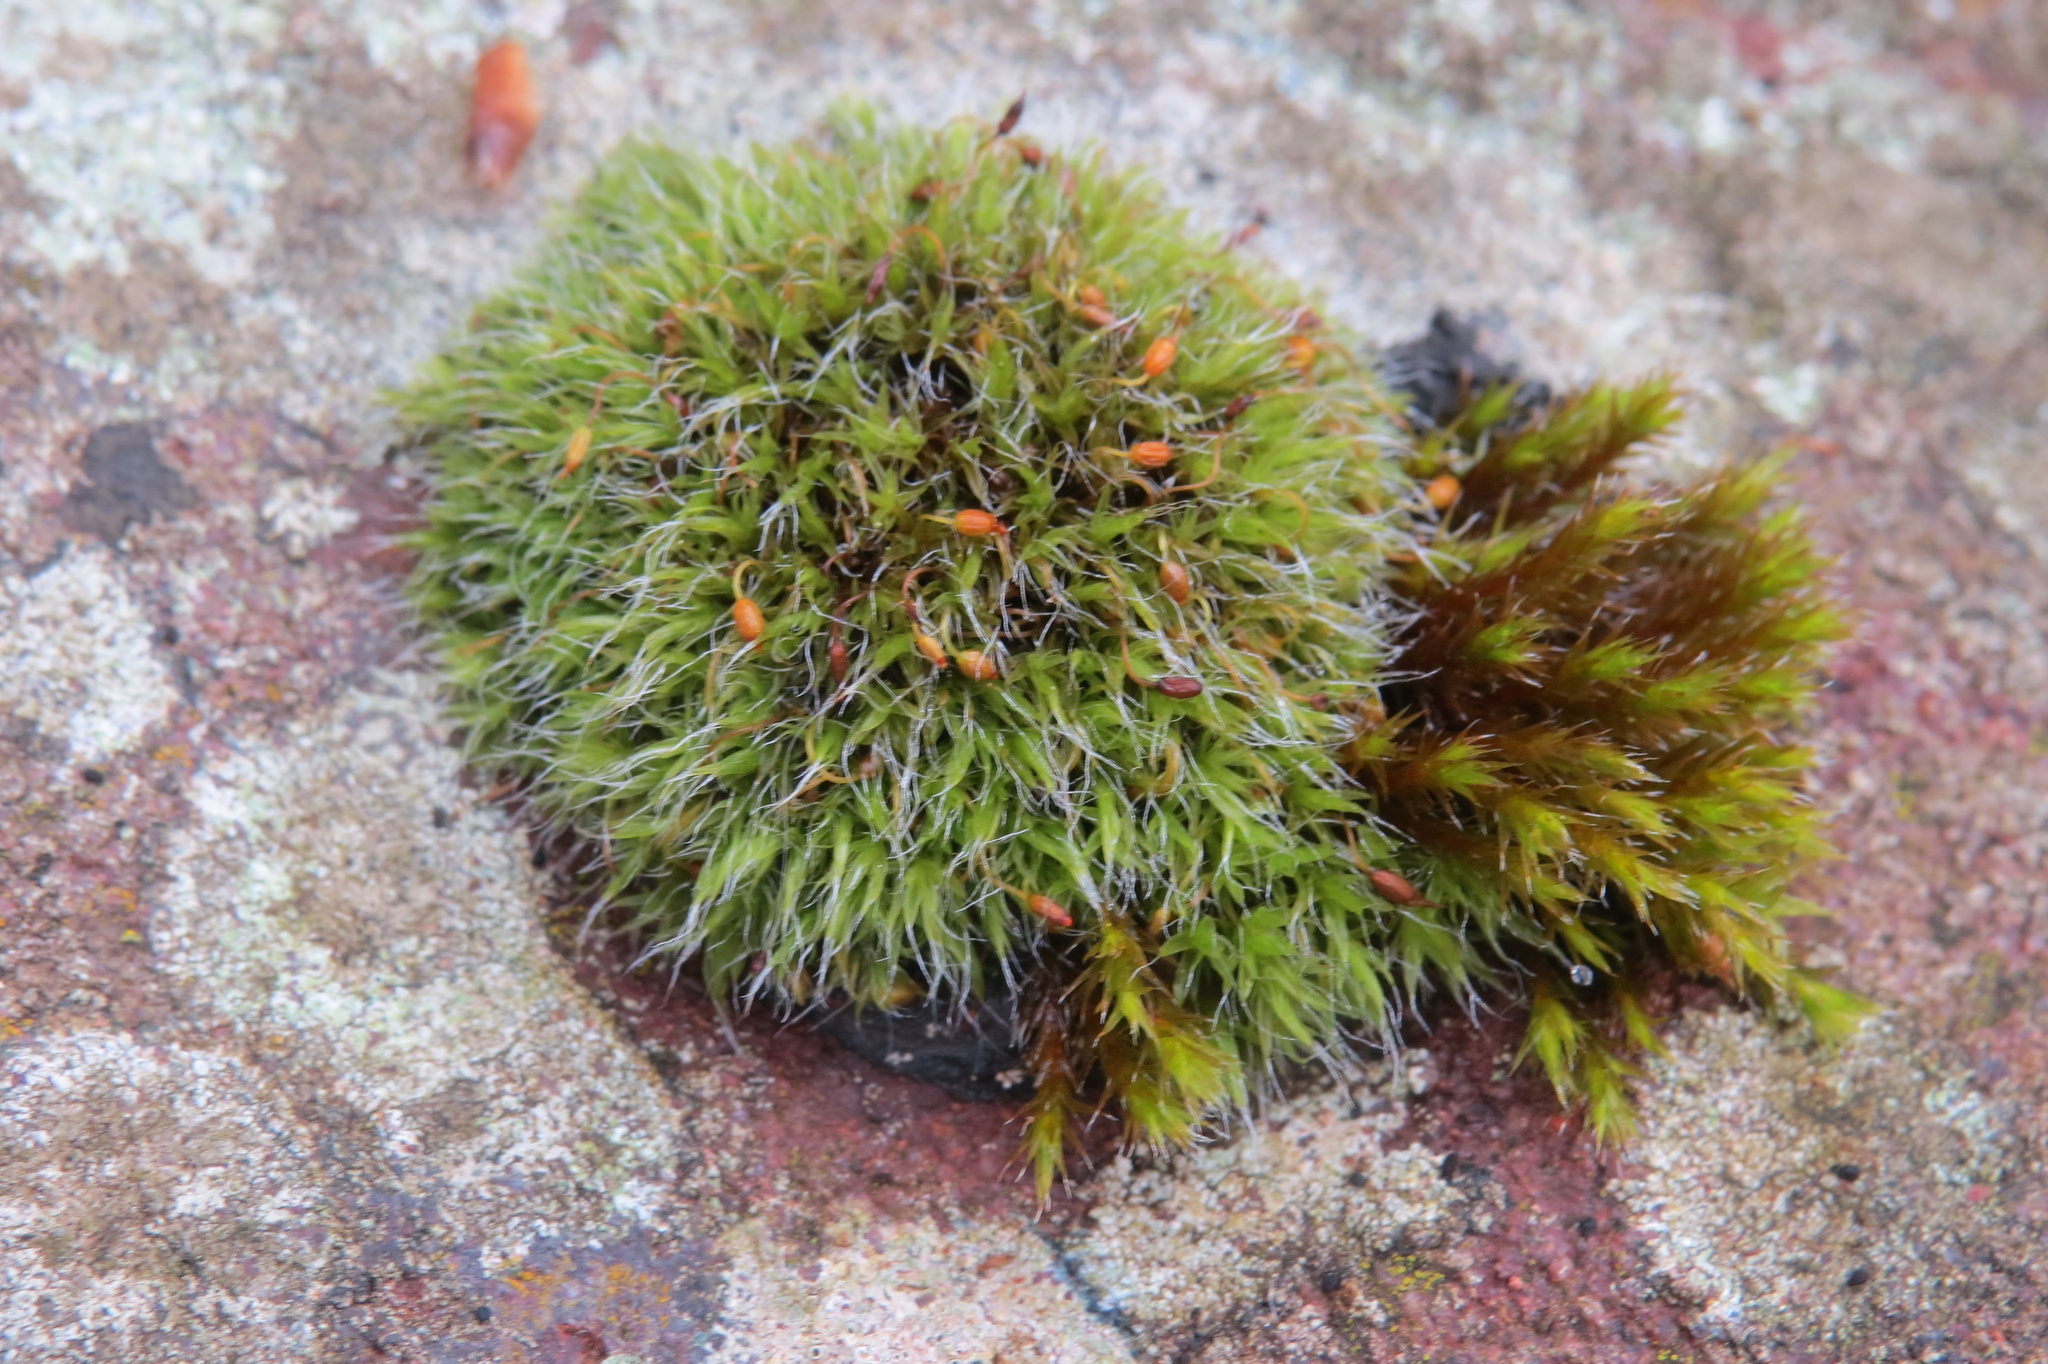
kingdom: Plantae
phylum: Bryophyta
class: Bryopsida
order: Grimmiales
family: Grimmiaceae
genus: Grimmia
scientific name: Grimmia pulvinata
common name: Grey-cushioned grimmia
